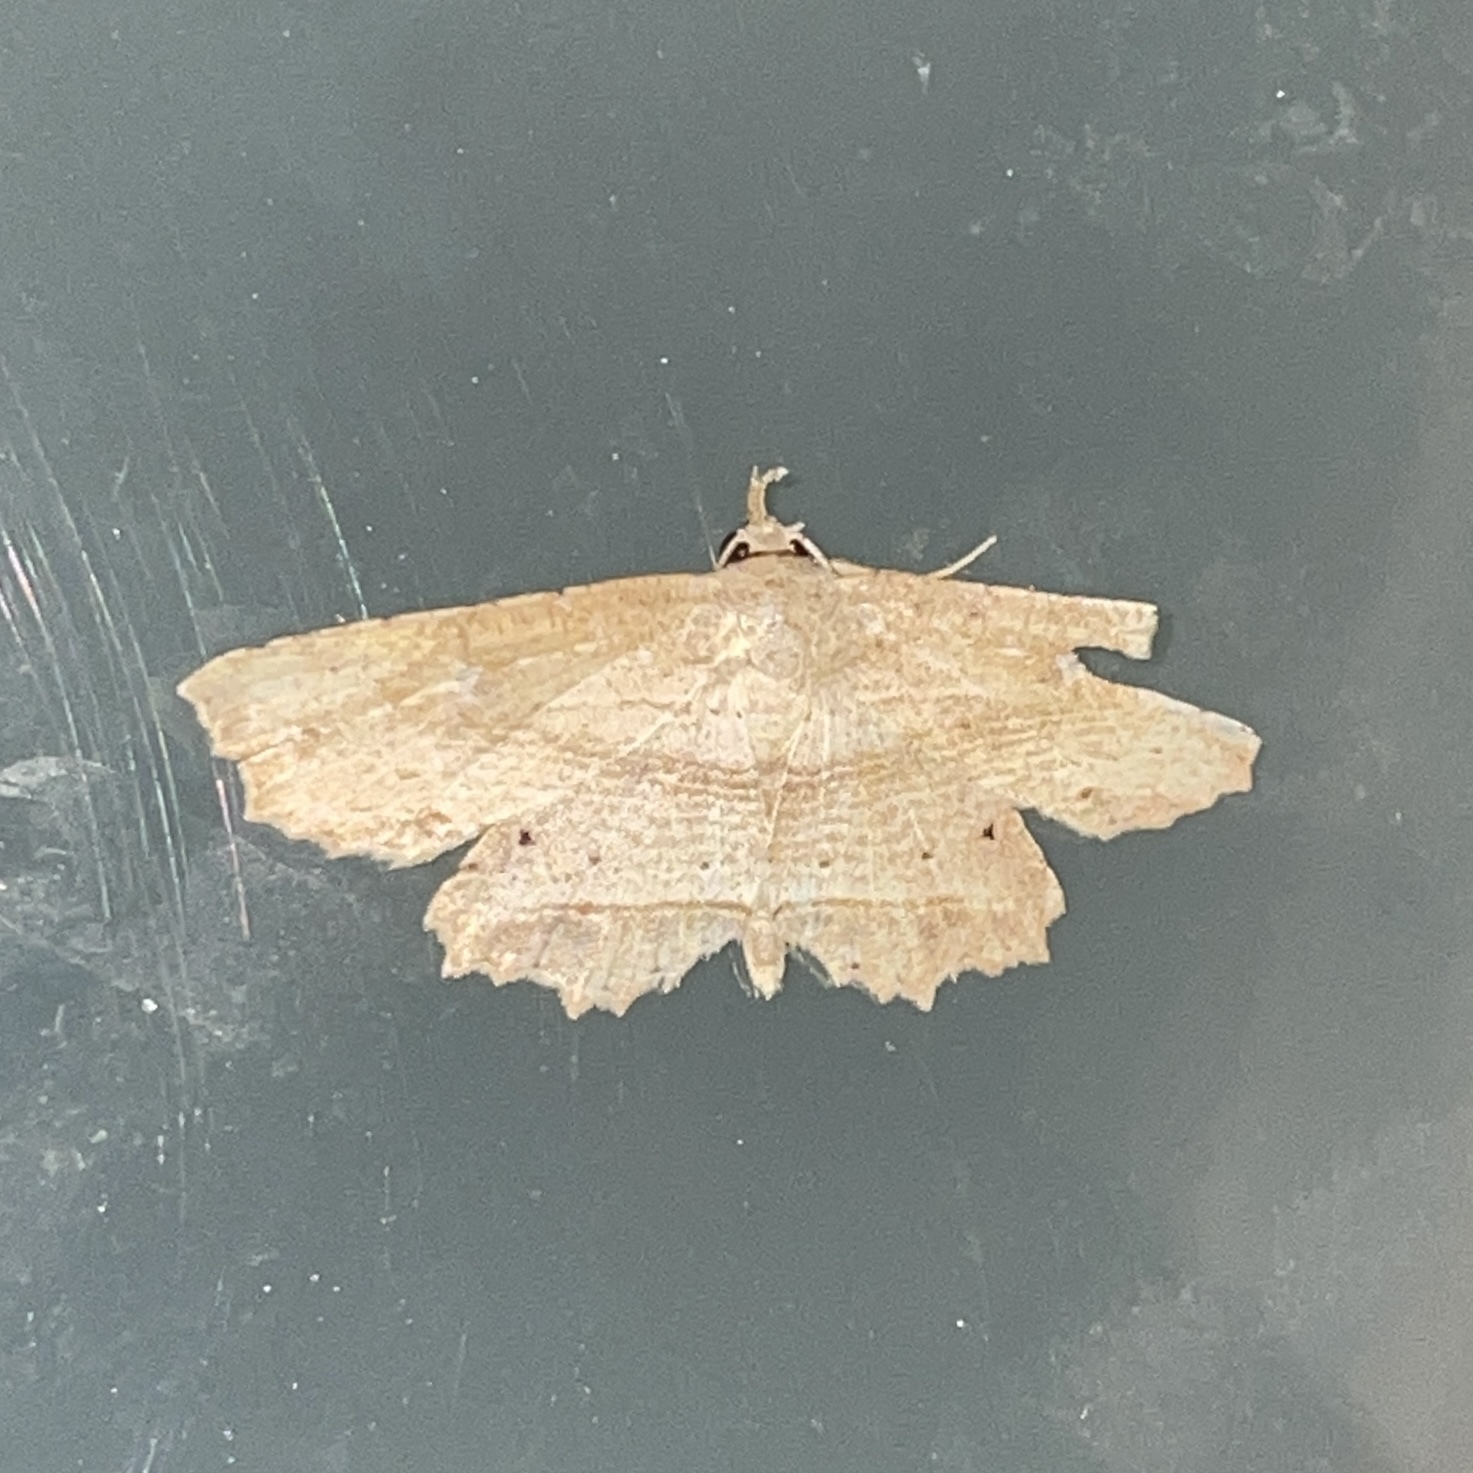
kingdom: Animalia
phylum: Arthropoda
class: Insecta
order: Lepidoptera
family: Erebidae
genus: Oroscopa
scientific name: Oroscopa abluta
